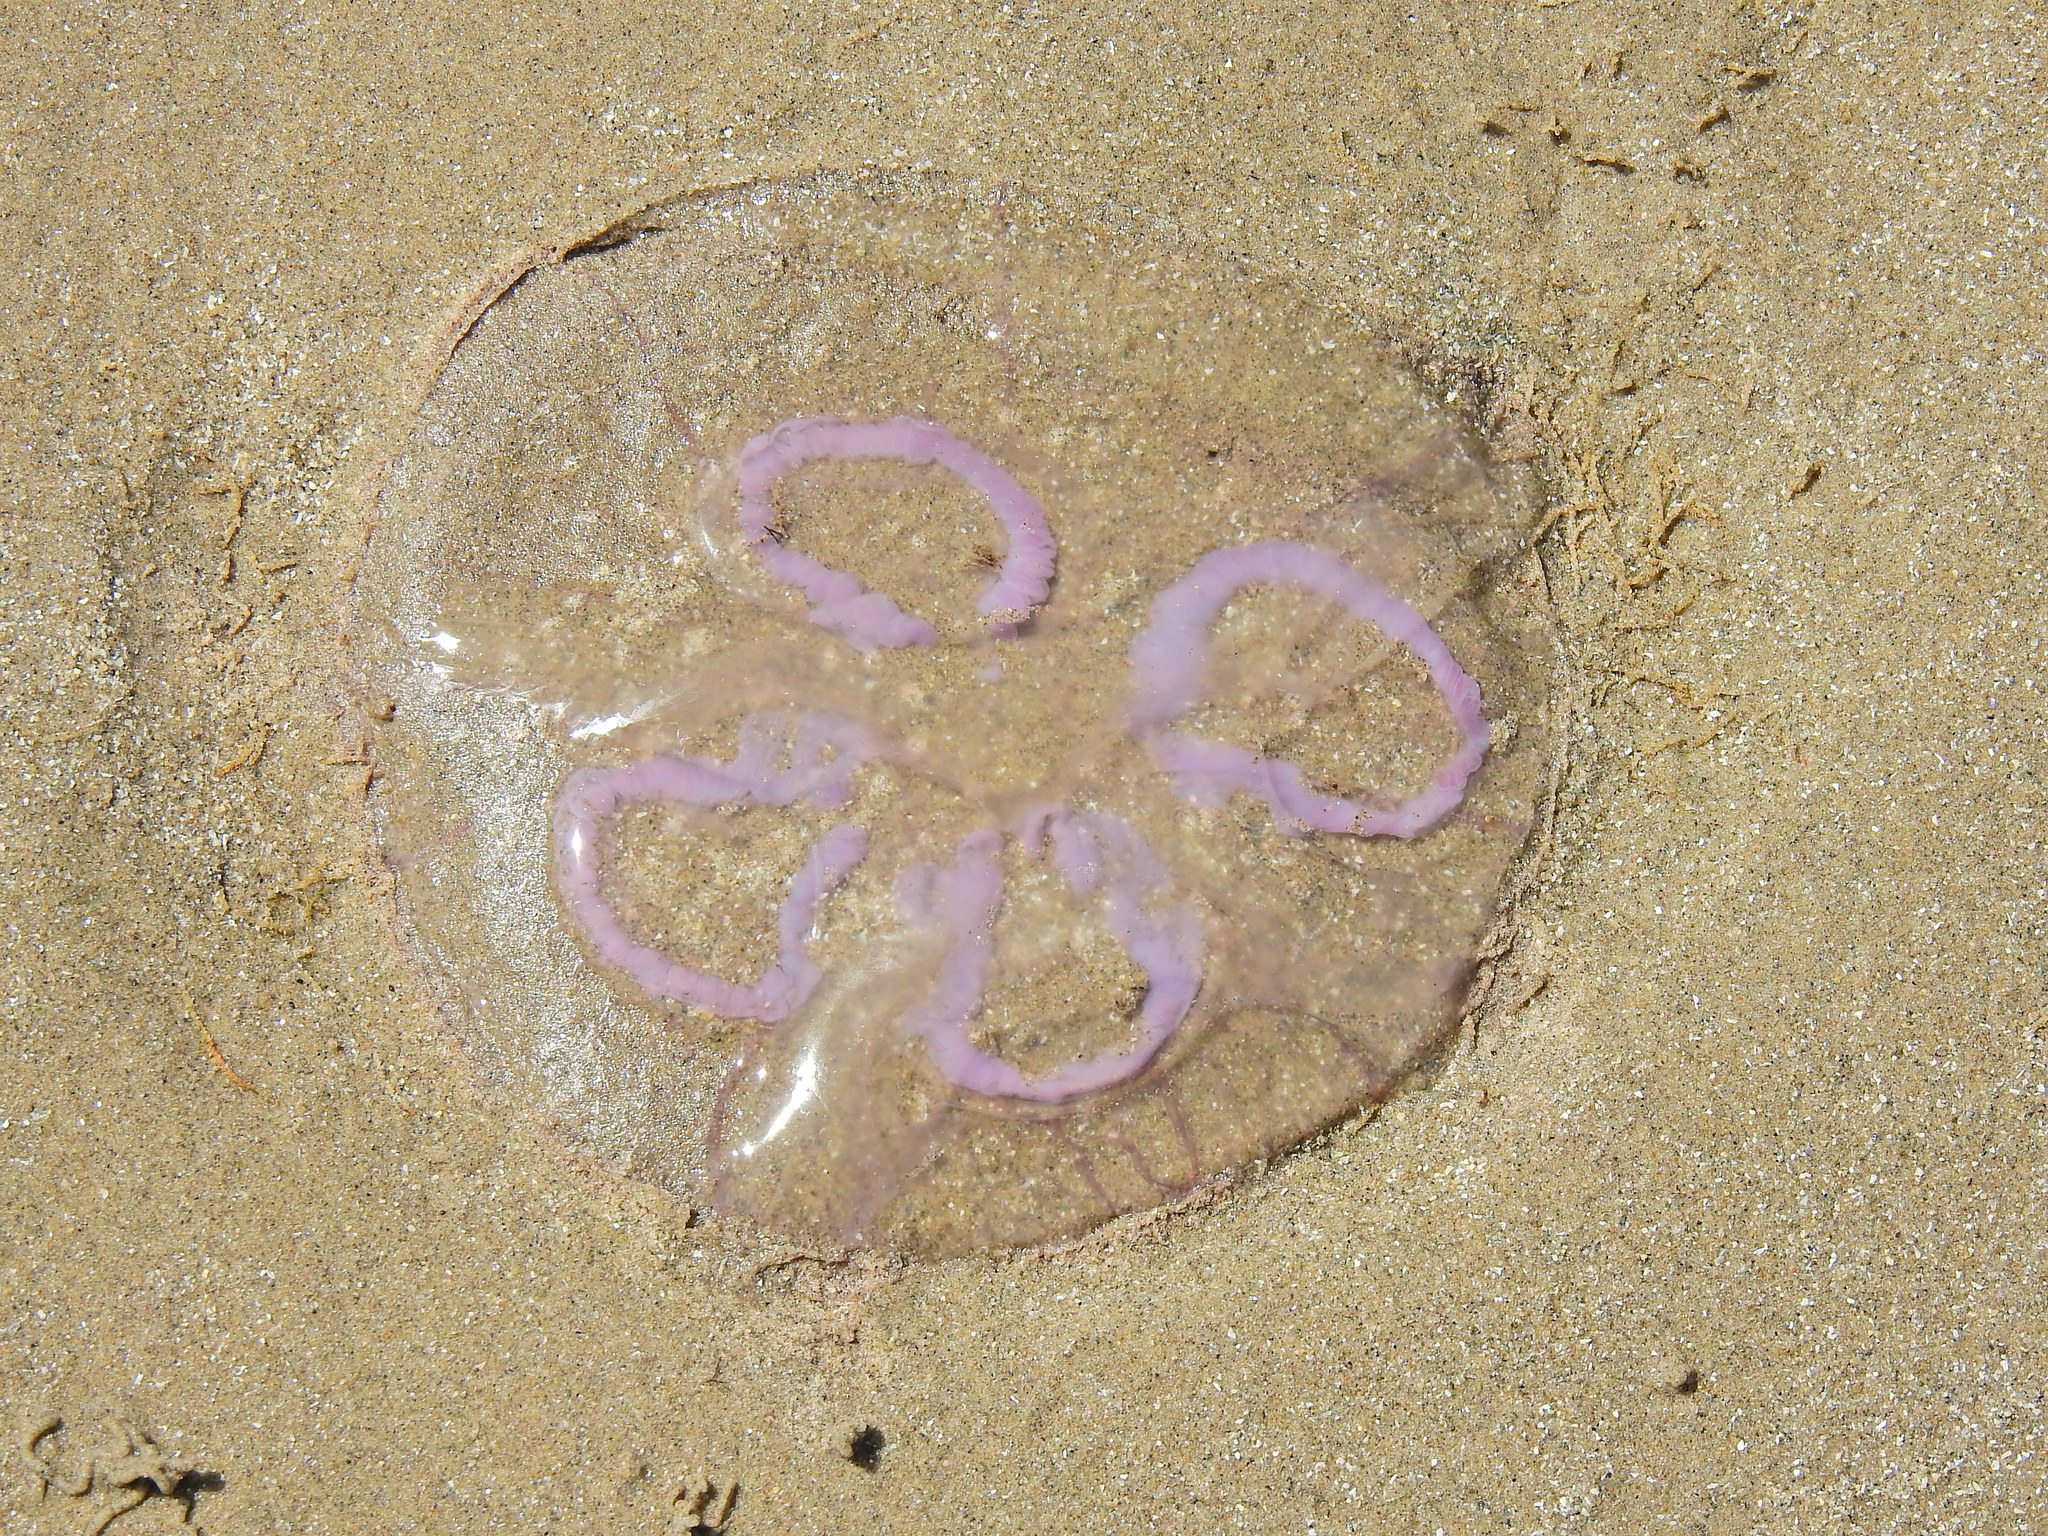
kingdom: Animalia
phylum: Cnidaria
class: Scyphozoa
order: Semaeostomeae
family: Ulmaridae
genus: Aurelia
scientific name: Aurelia aurita
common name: Moon jellyfish
